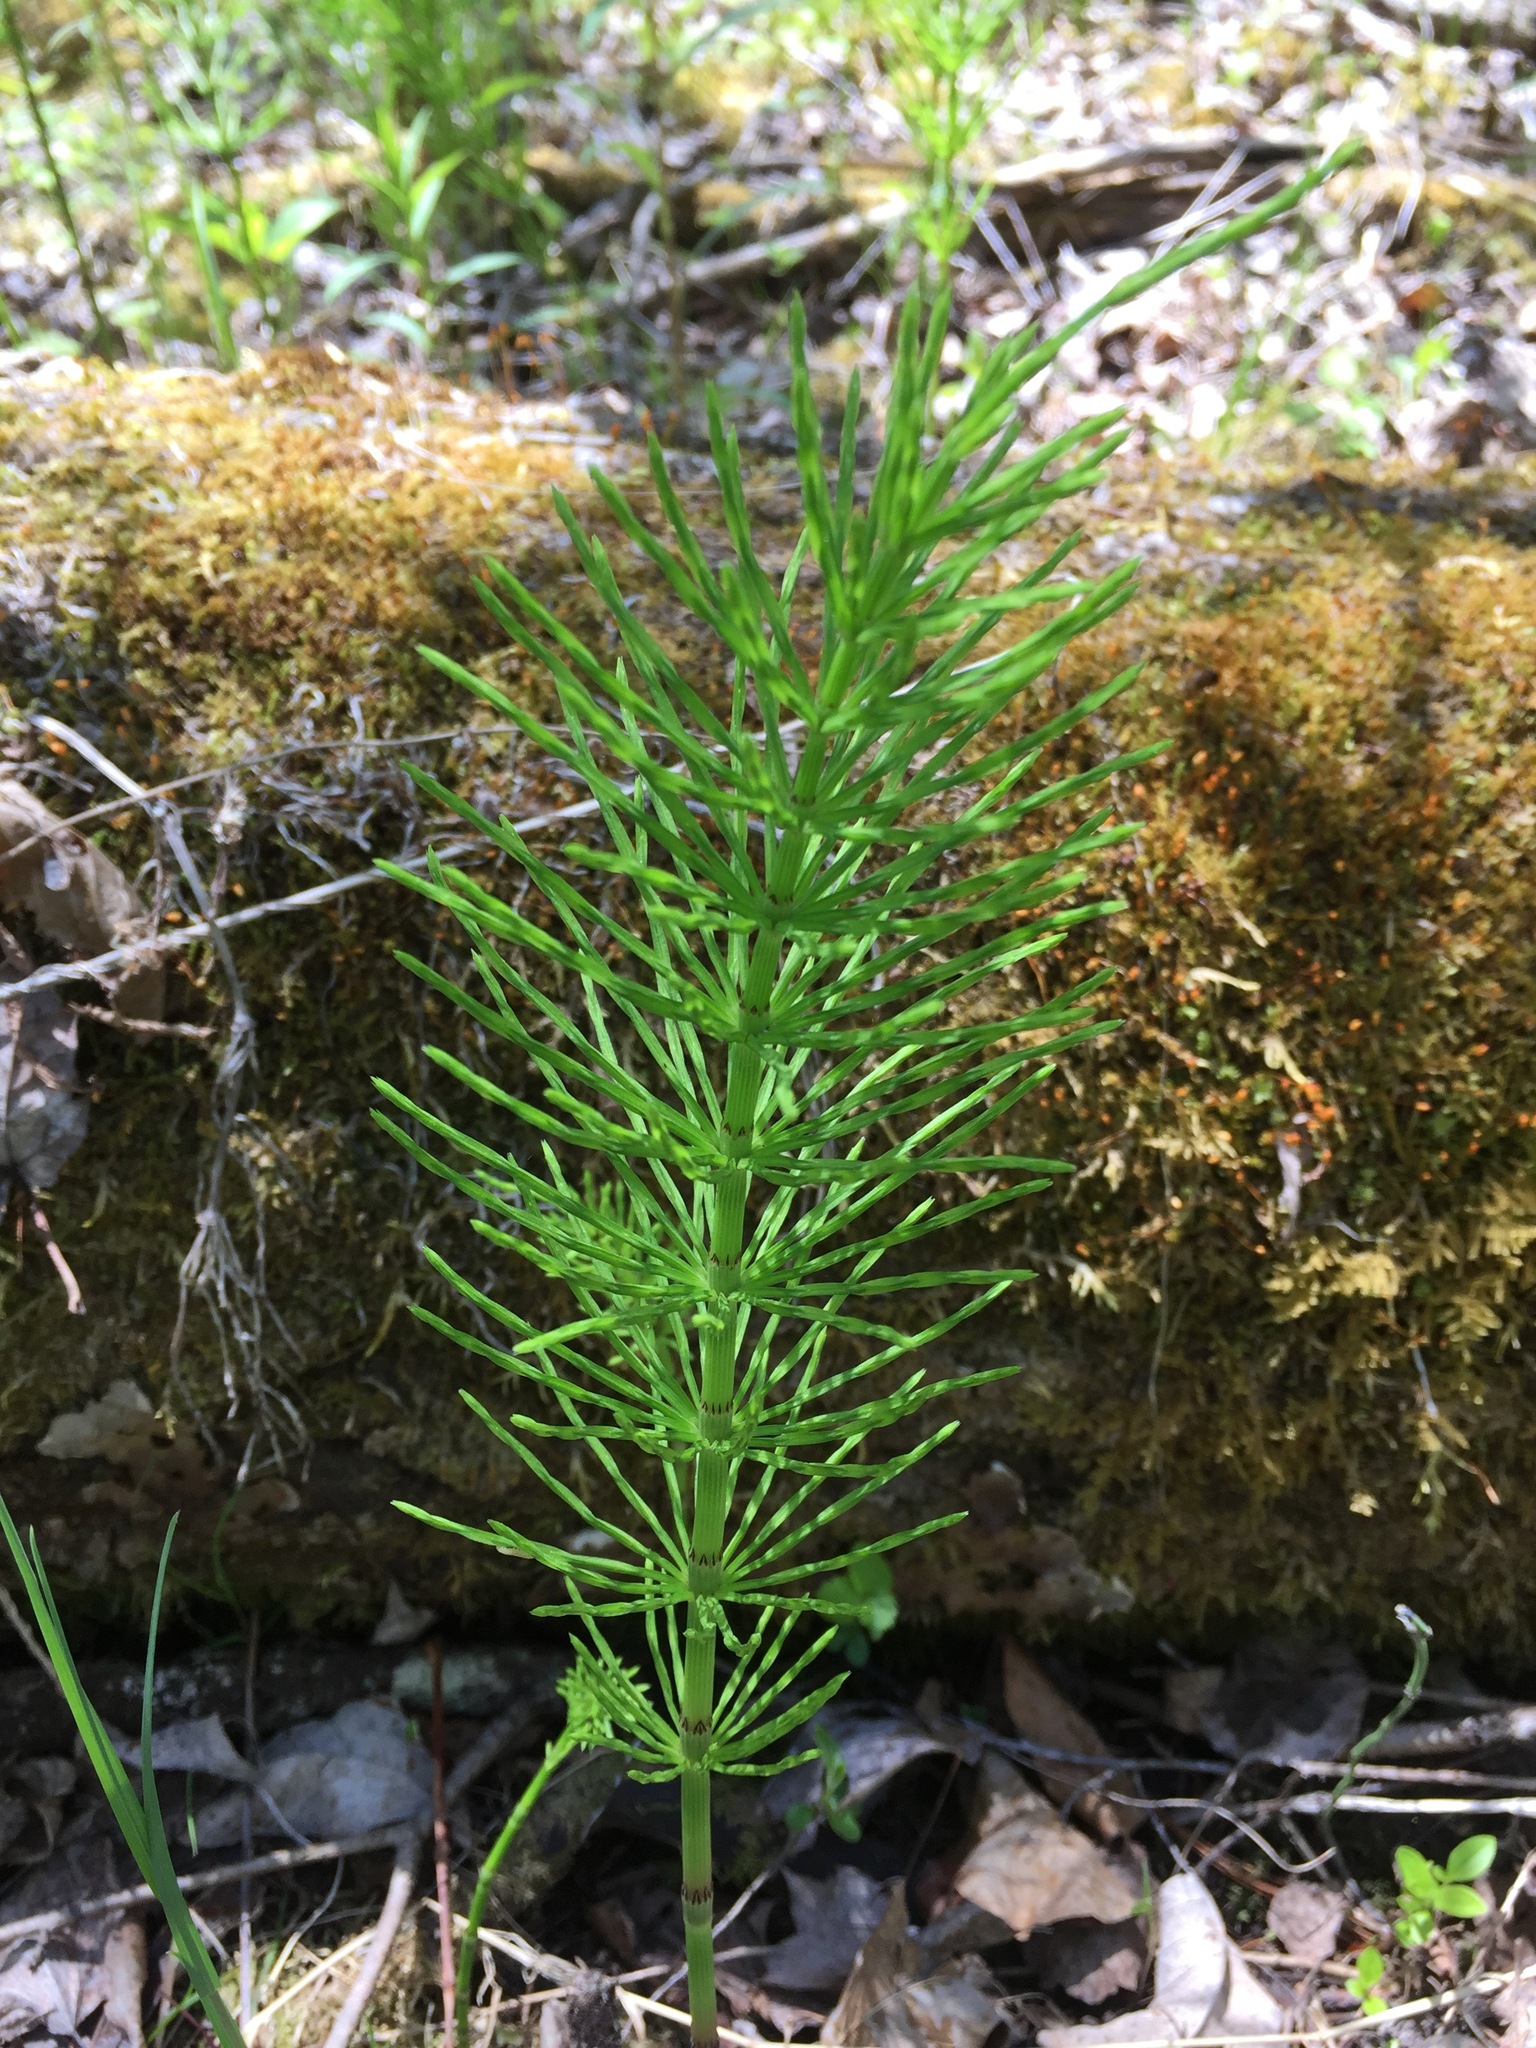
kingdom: Plantae
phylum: Tracheophyta
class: Polypodiopsida
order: Equisetales
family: Equisetaceae
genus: Equisetum
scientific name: Equisetum arvense
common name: Field horsetail
